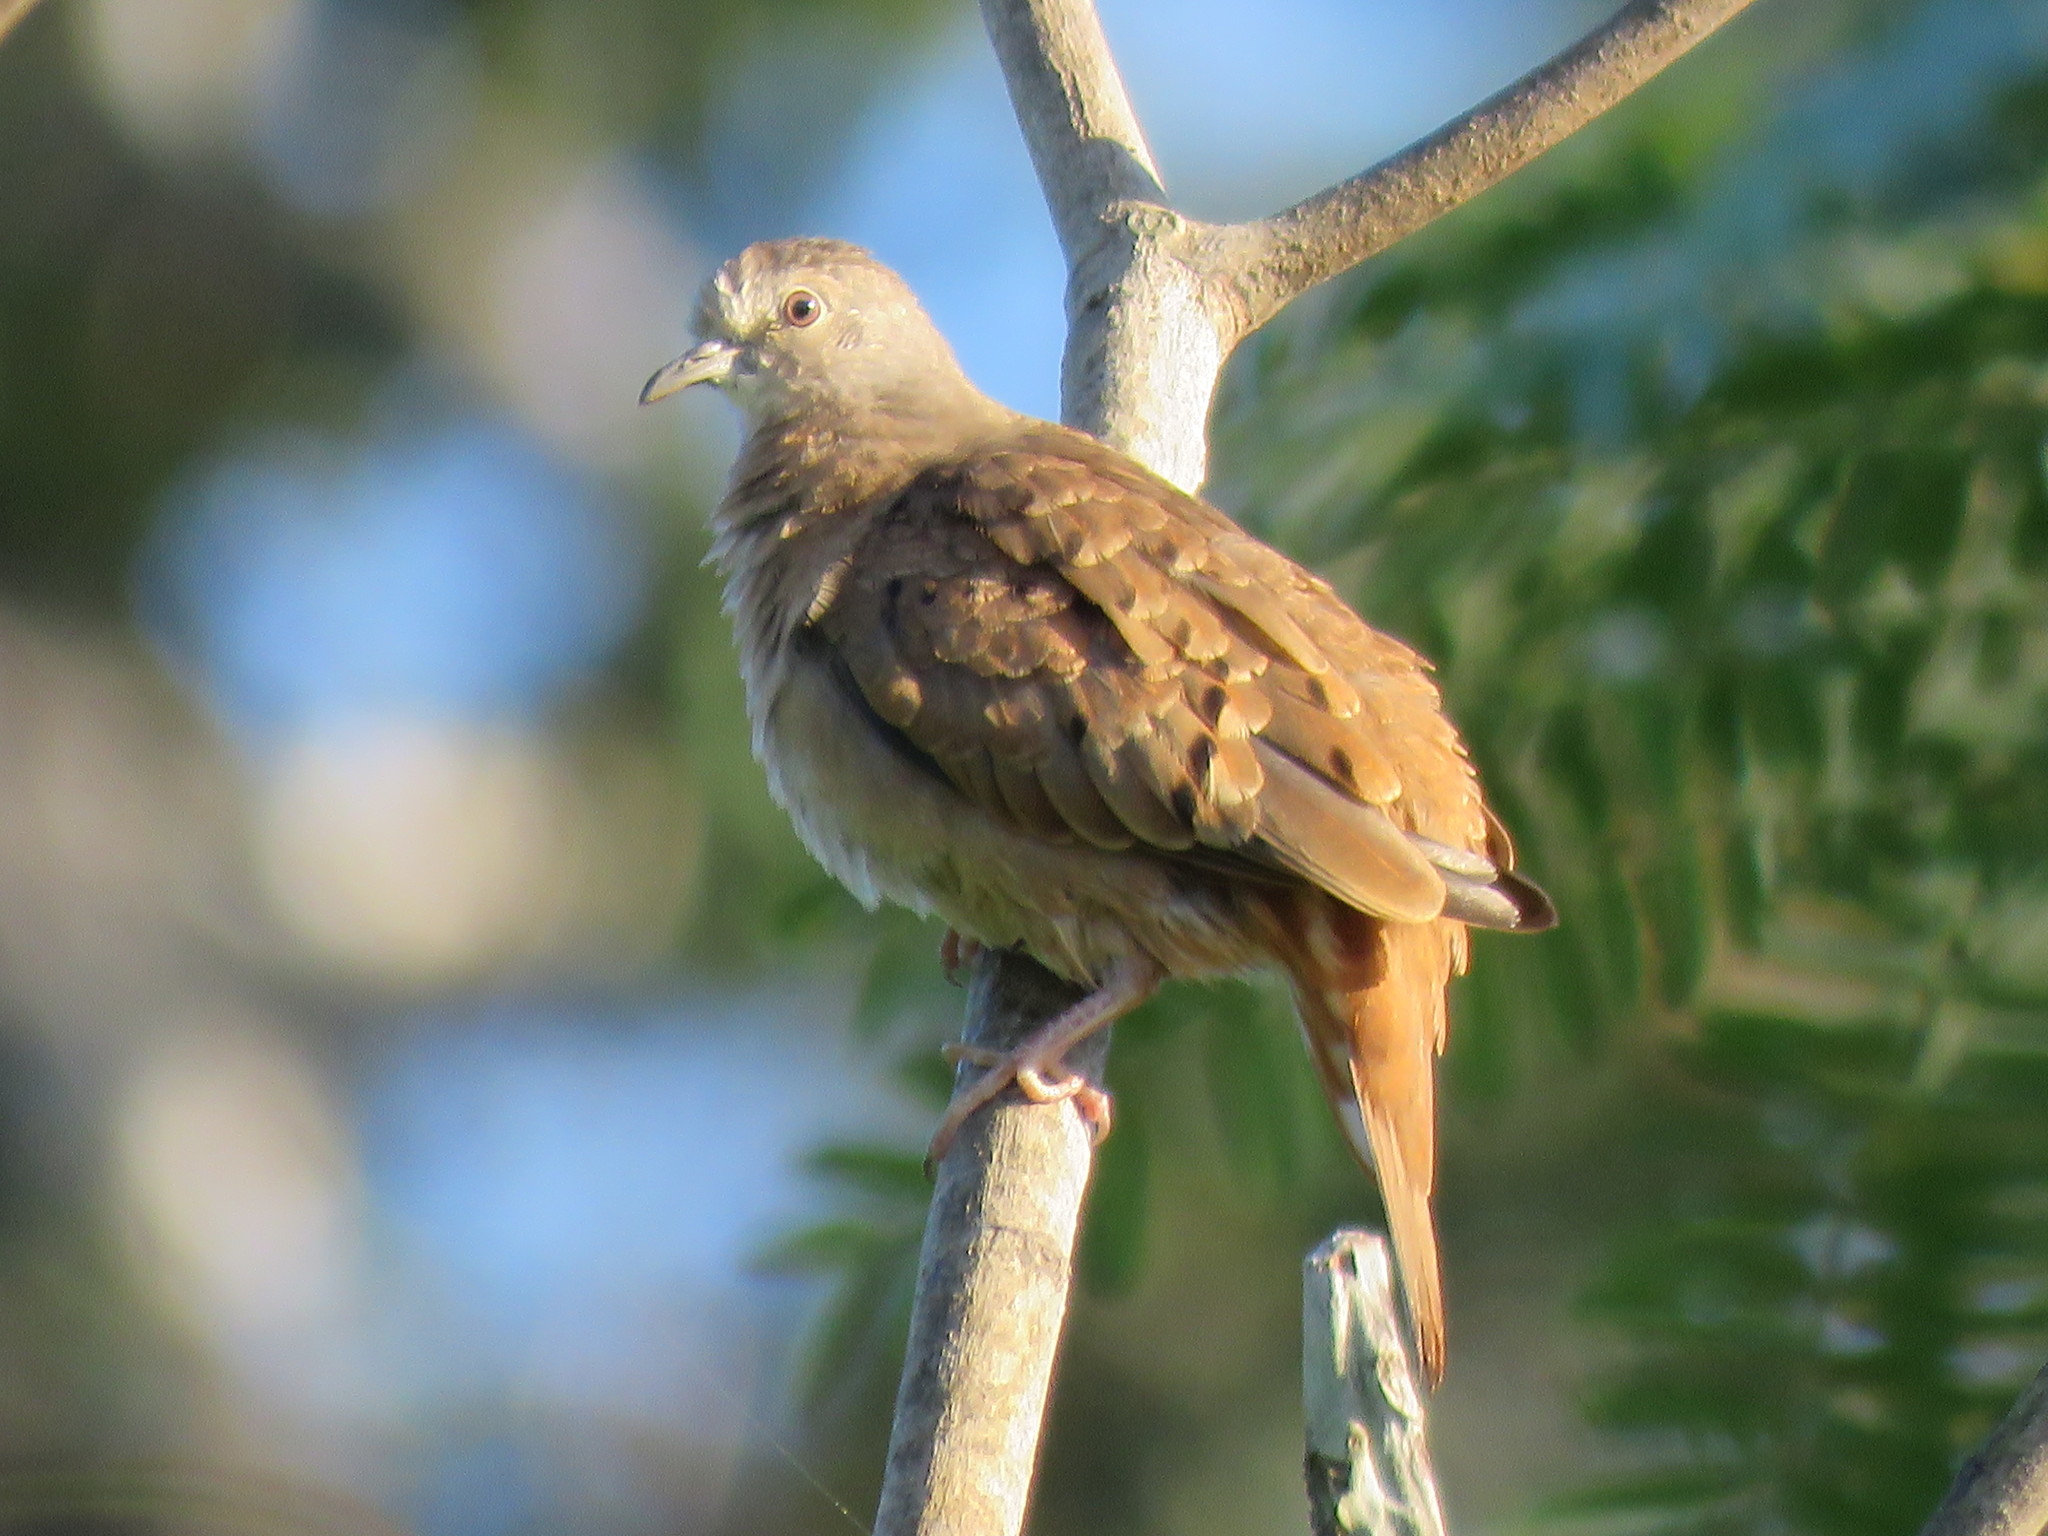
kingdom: Animalia
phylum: Chordata
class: Aves
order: Columbiformes
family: Columbidae
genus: Columbina
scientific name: Columbina talpacoti
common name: Ruddy ground dove
